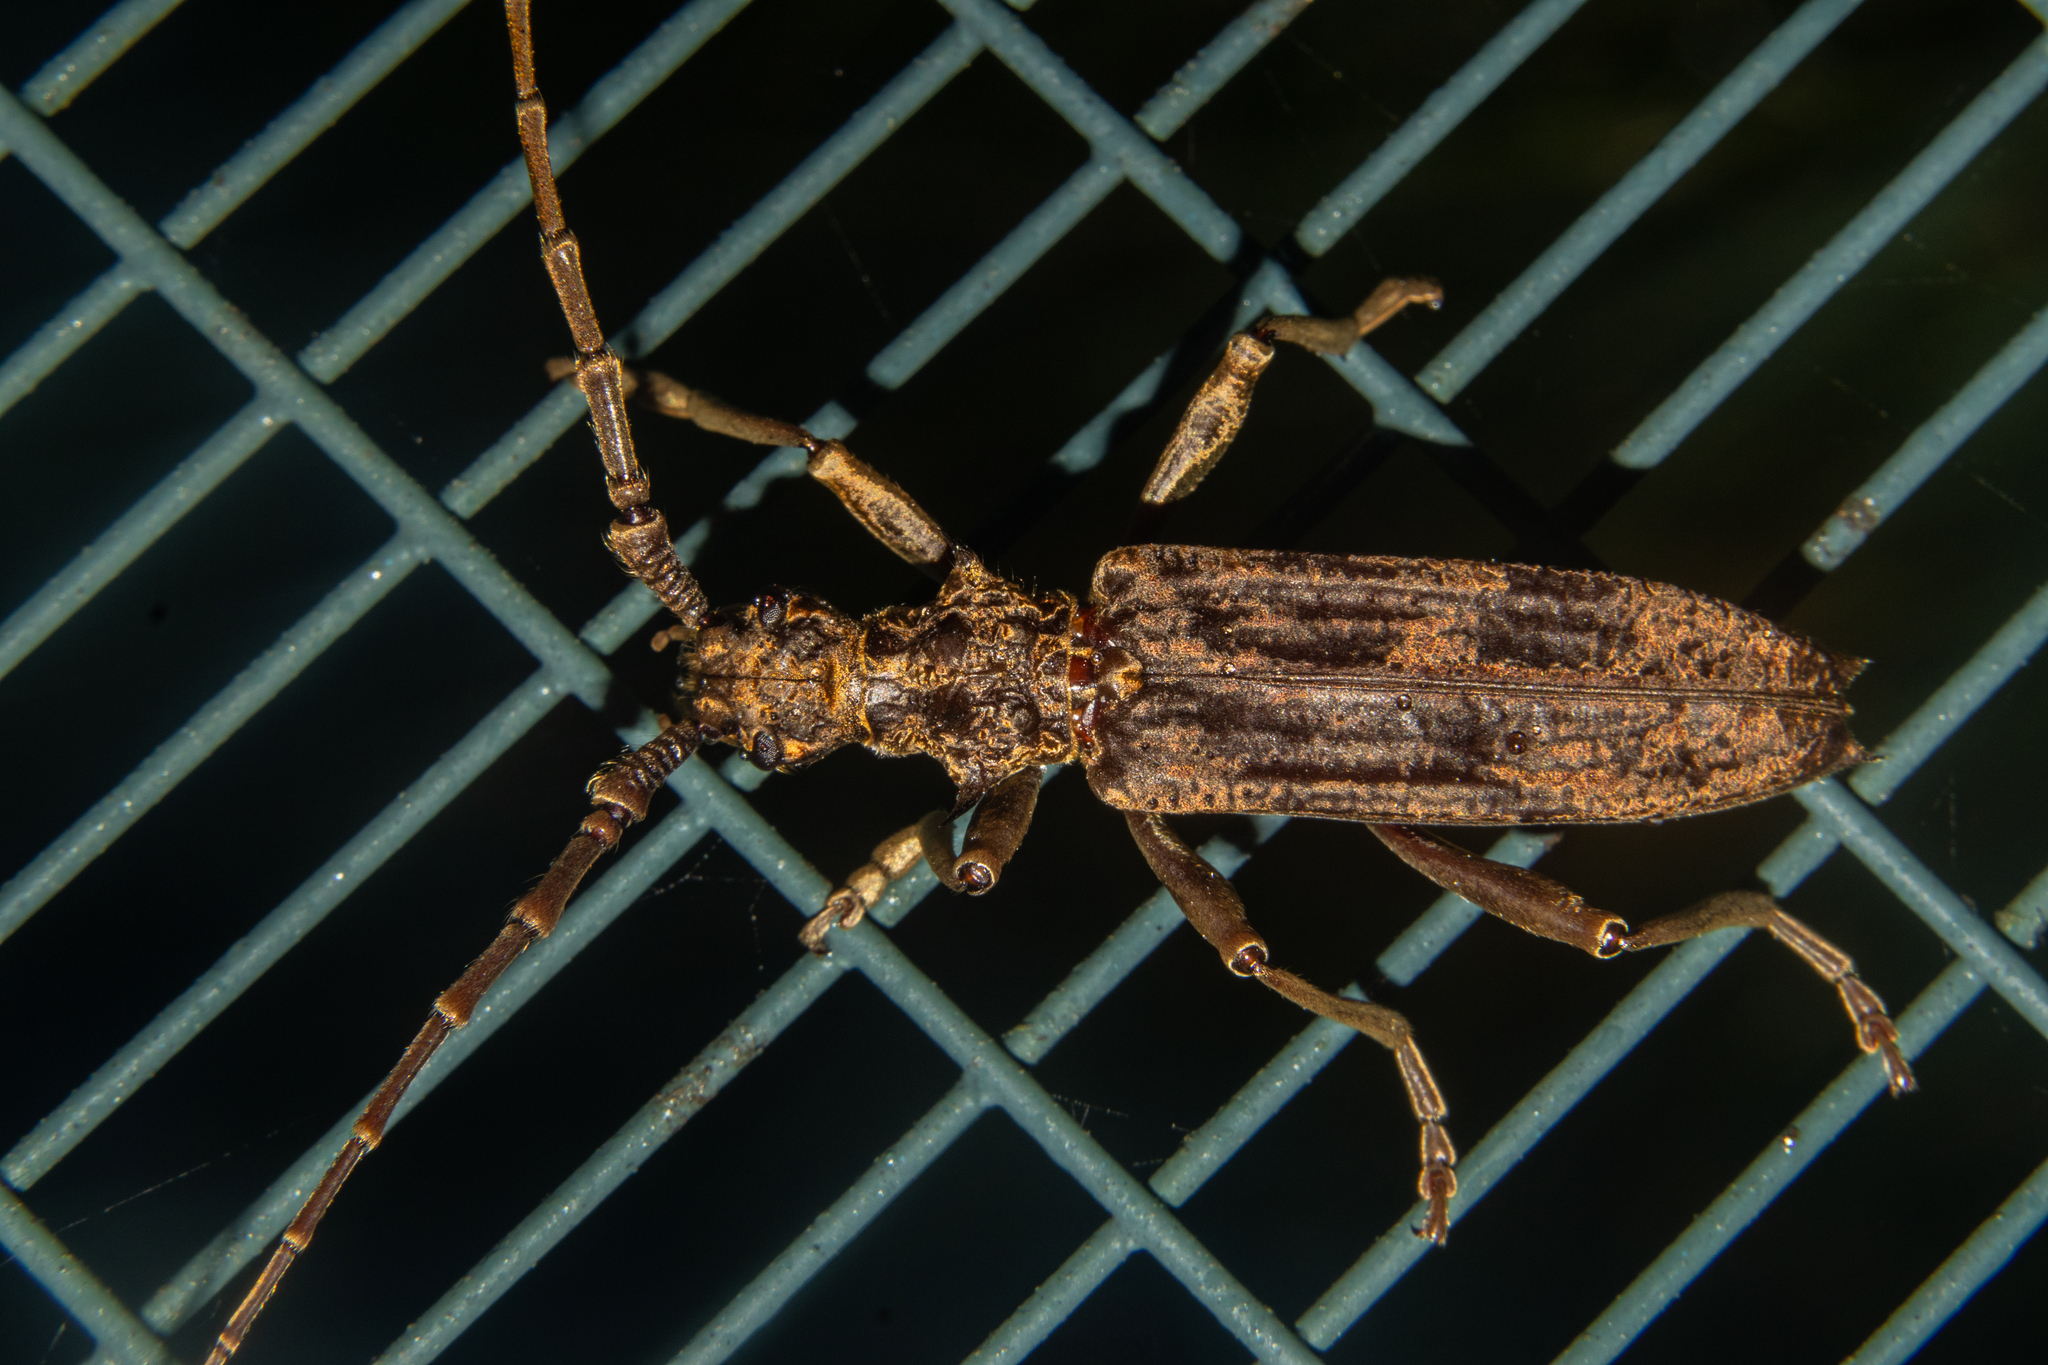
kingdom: Animalia
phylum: Arthropoda
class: Insecta
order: Coleoptera
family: Cerambycidae
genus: Blosyropus
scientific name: Blosyropus spinosus
